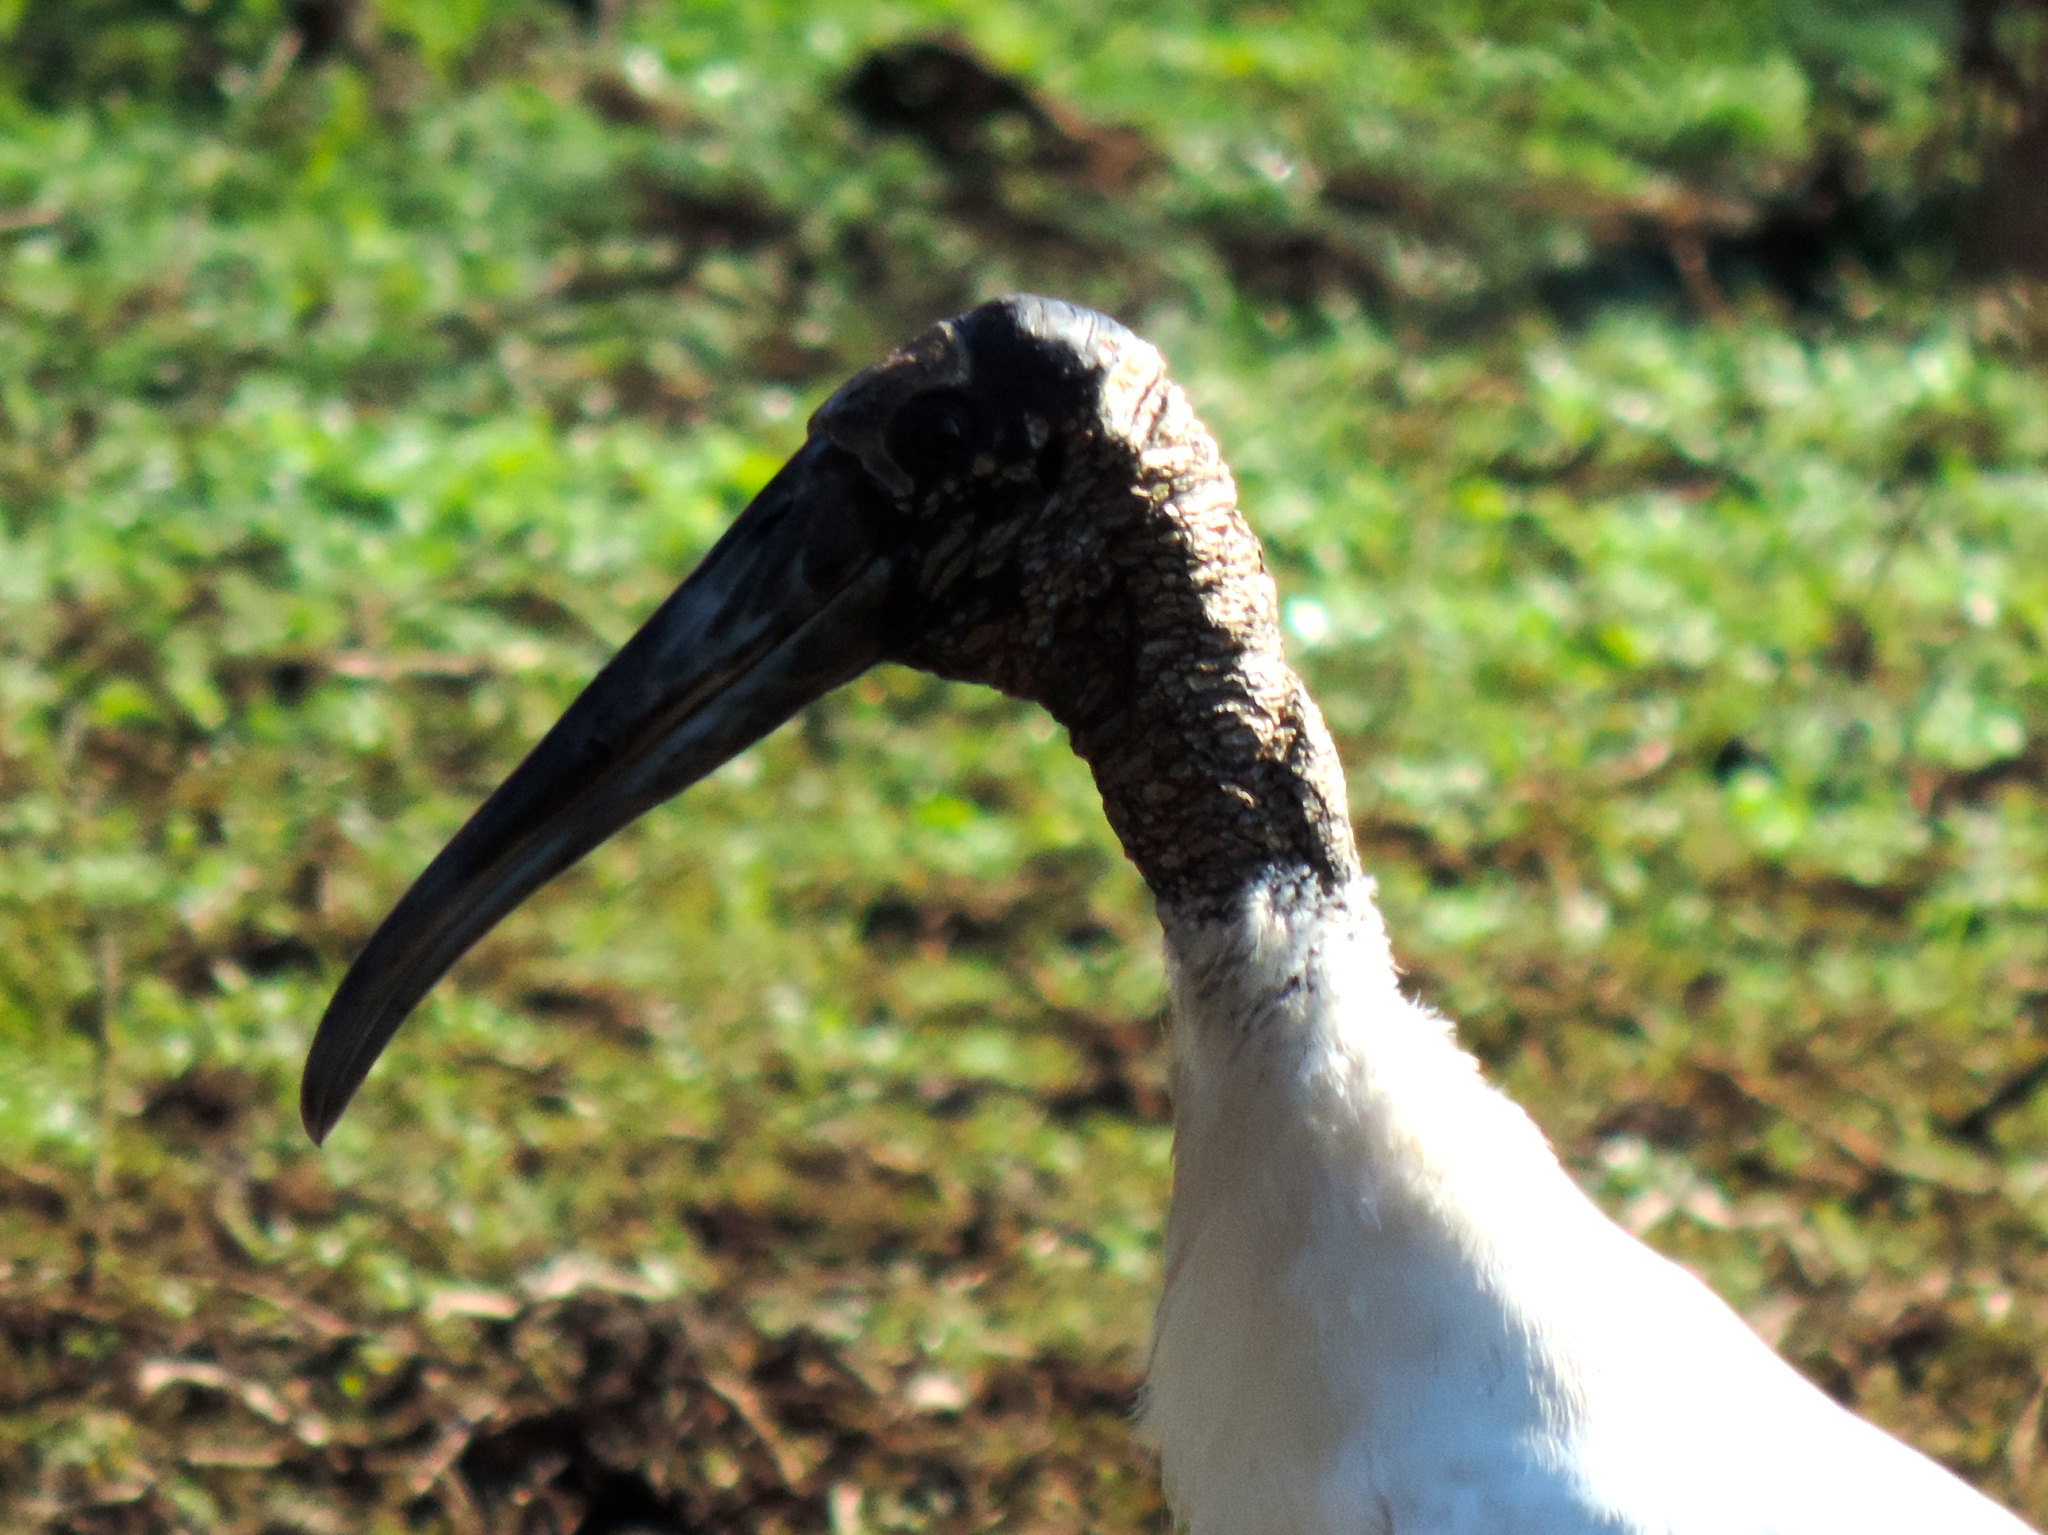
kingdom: Animalia
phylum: Chordata
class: Aves
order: Ciconiiformes
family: Ciconiidae
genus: Mycteria
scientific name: Mycteria americana
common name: Wood stork
